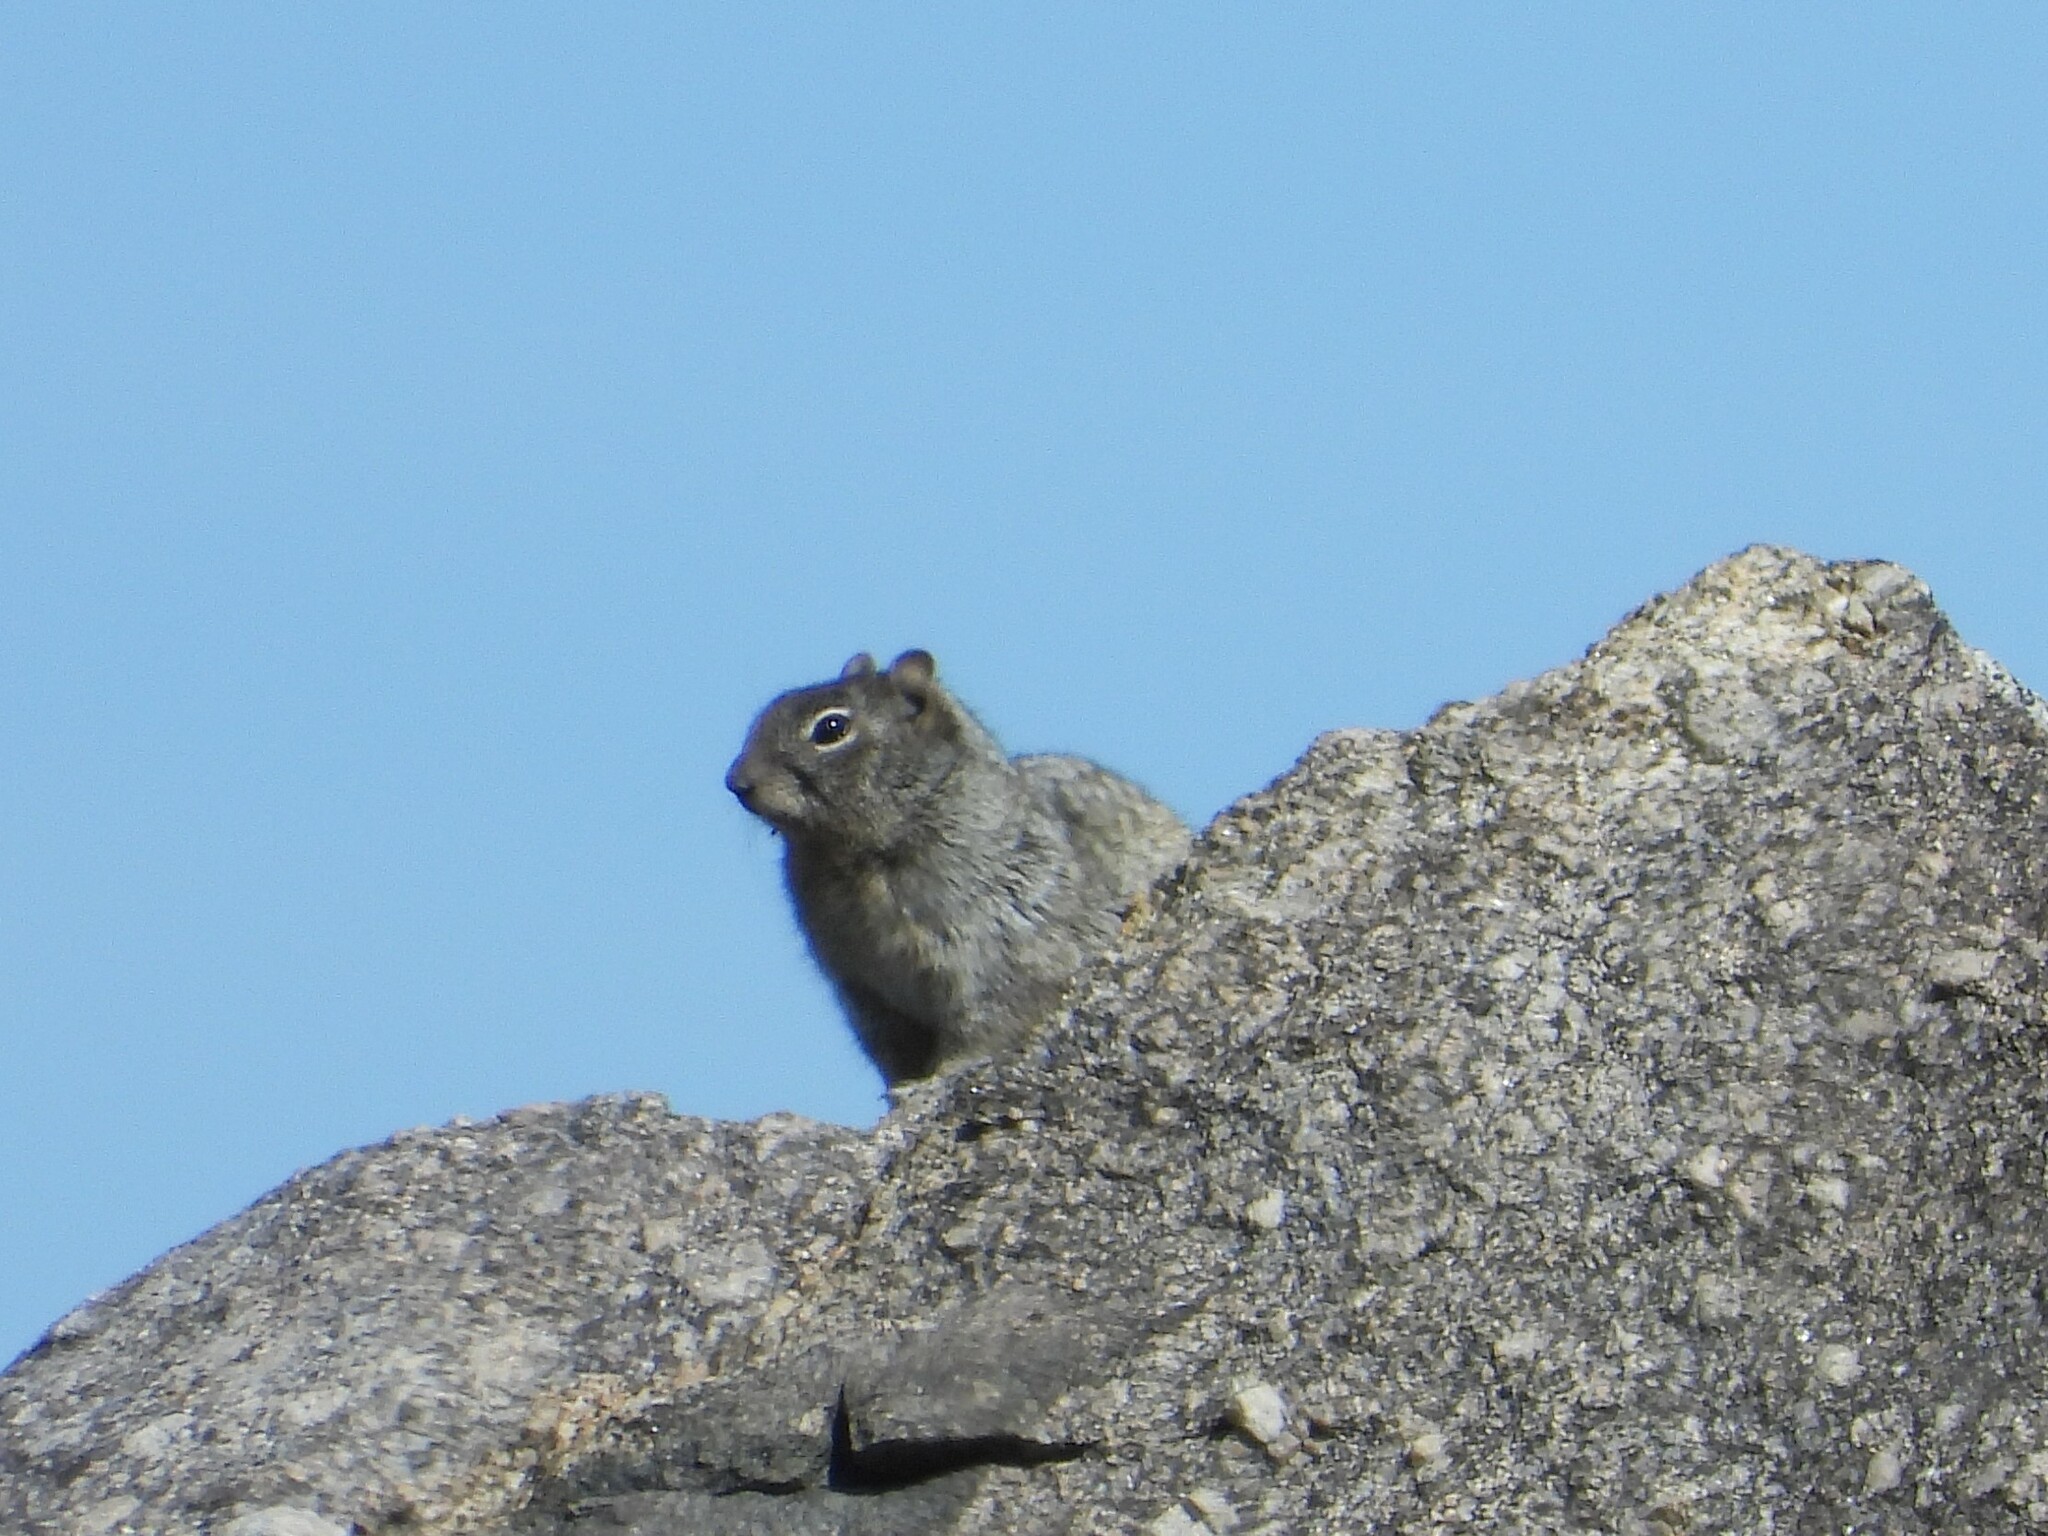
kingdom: Animalia
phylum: Chordata
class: Mammalia
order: Rodentia
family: Sciuridae
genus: Otospermophilus
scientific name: Otospermophilus variegatus
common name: Rock squirrel
